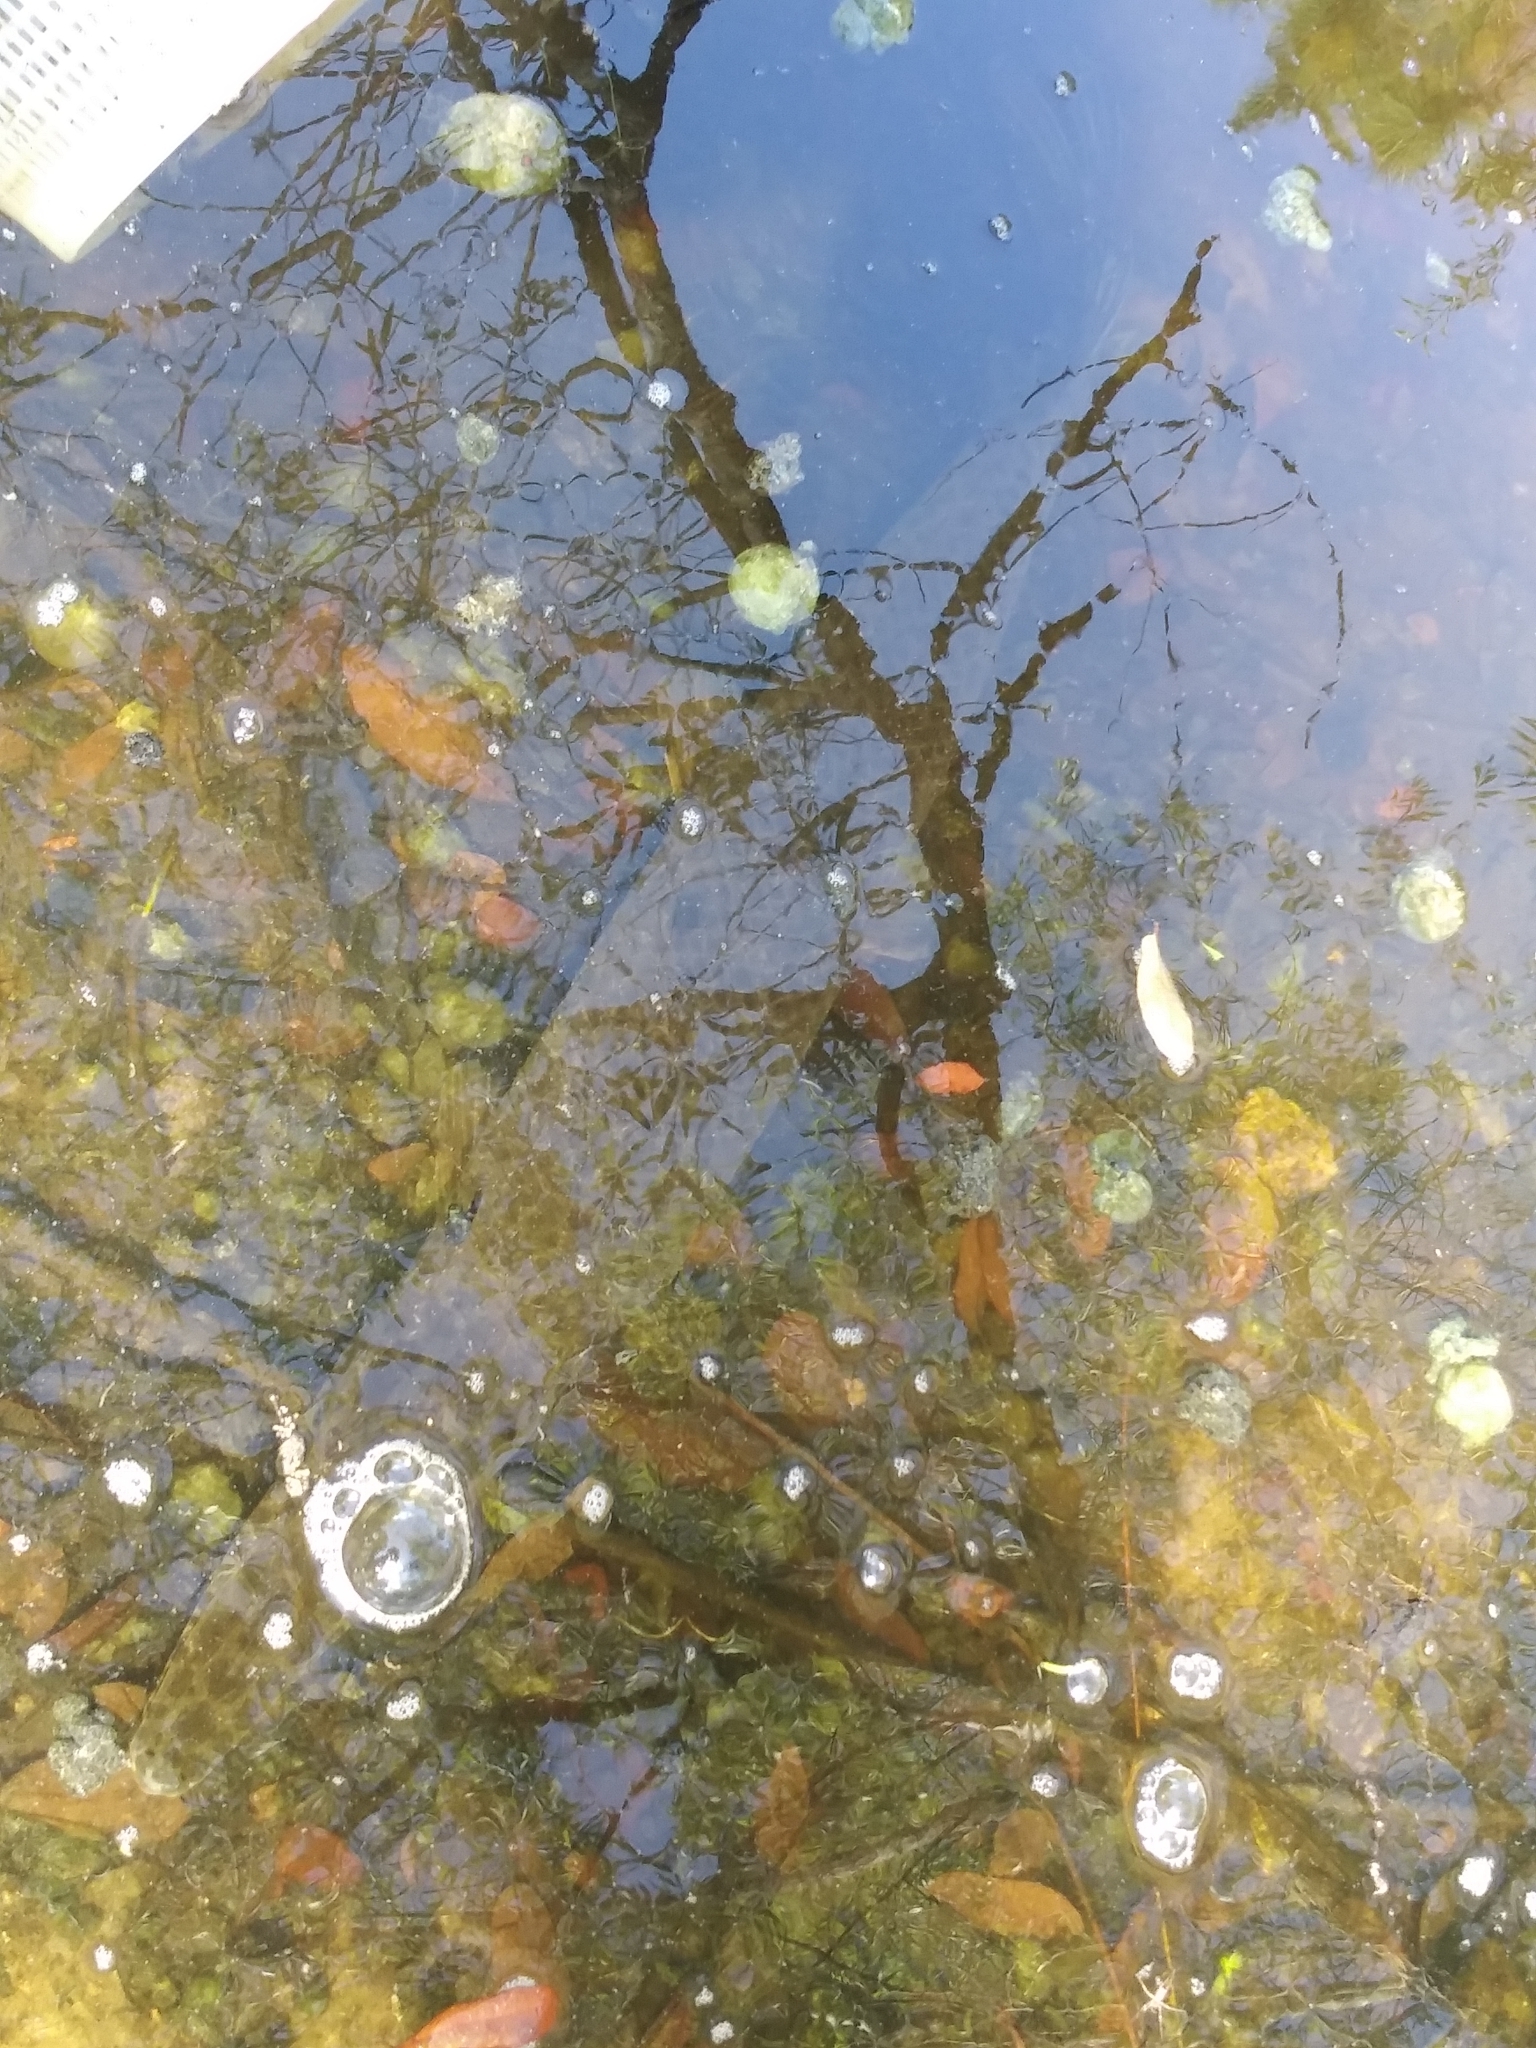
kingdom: Animalia
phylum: Chordata
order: Lepisosteiformes
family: Lepisosteidae
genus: Lepisosteus
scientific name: Lepisosteus platyrhincus
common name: Florida gar
